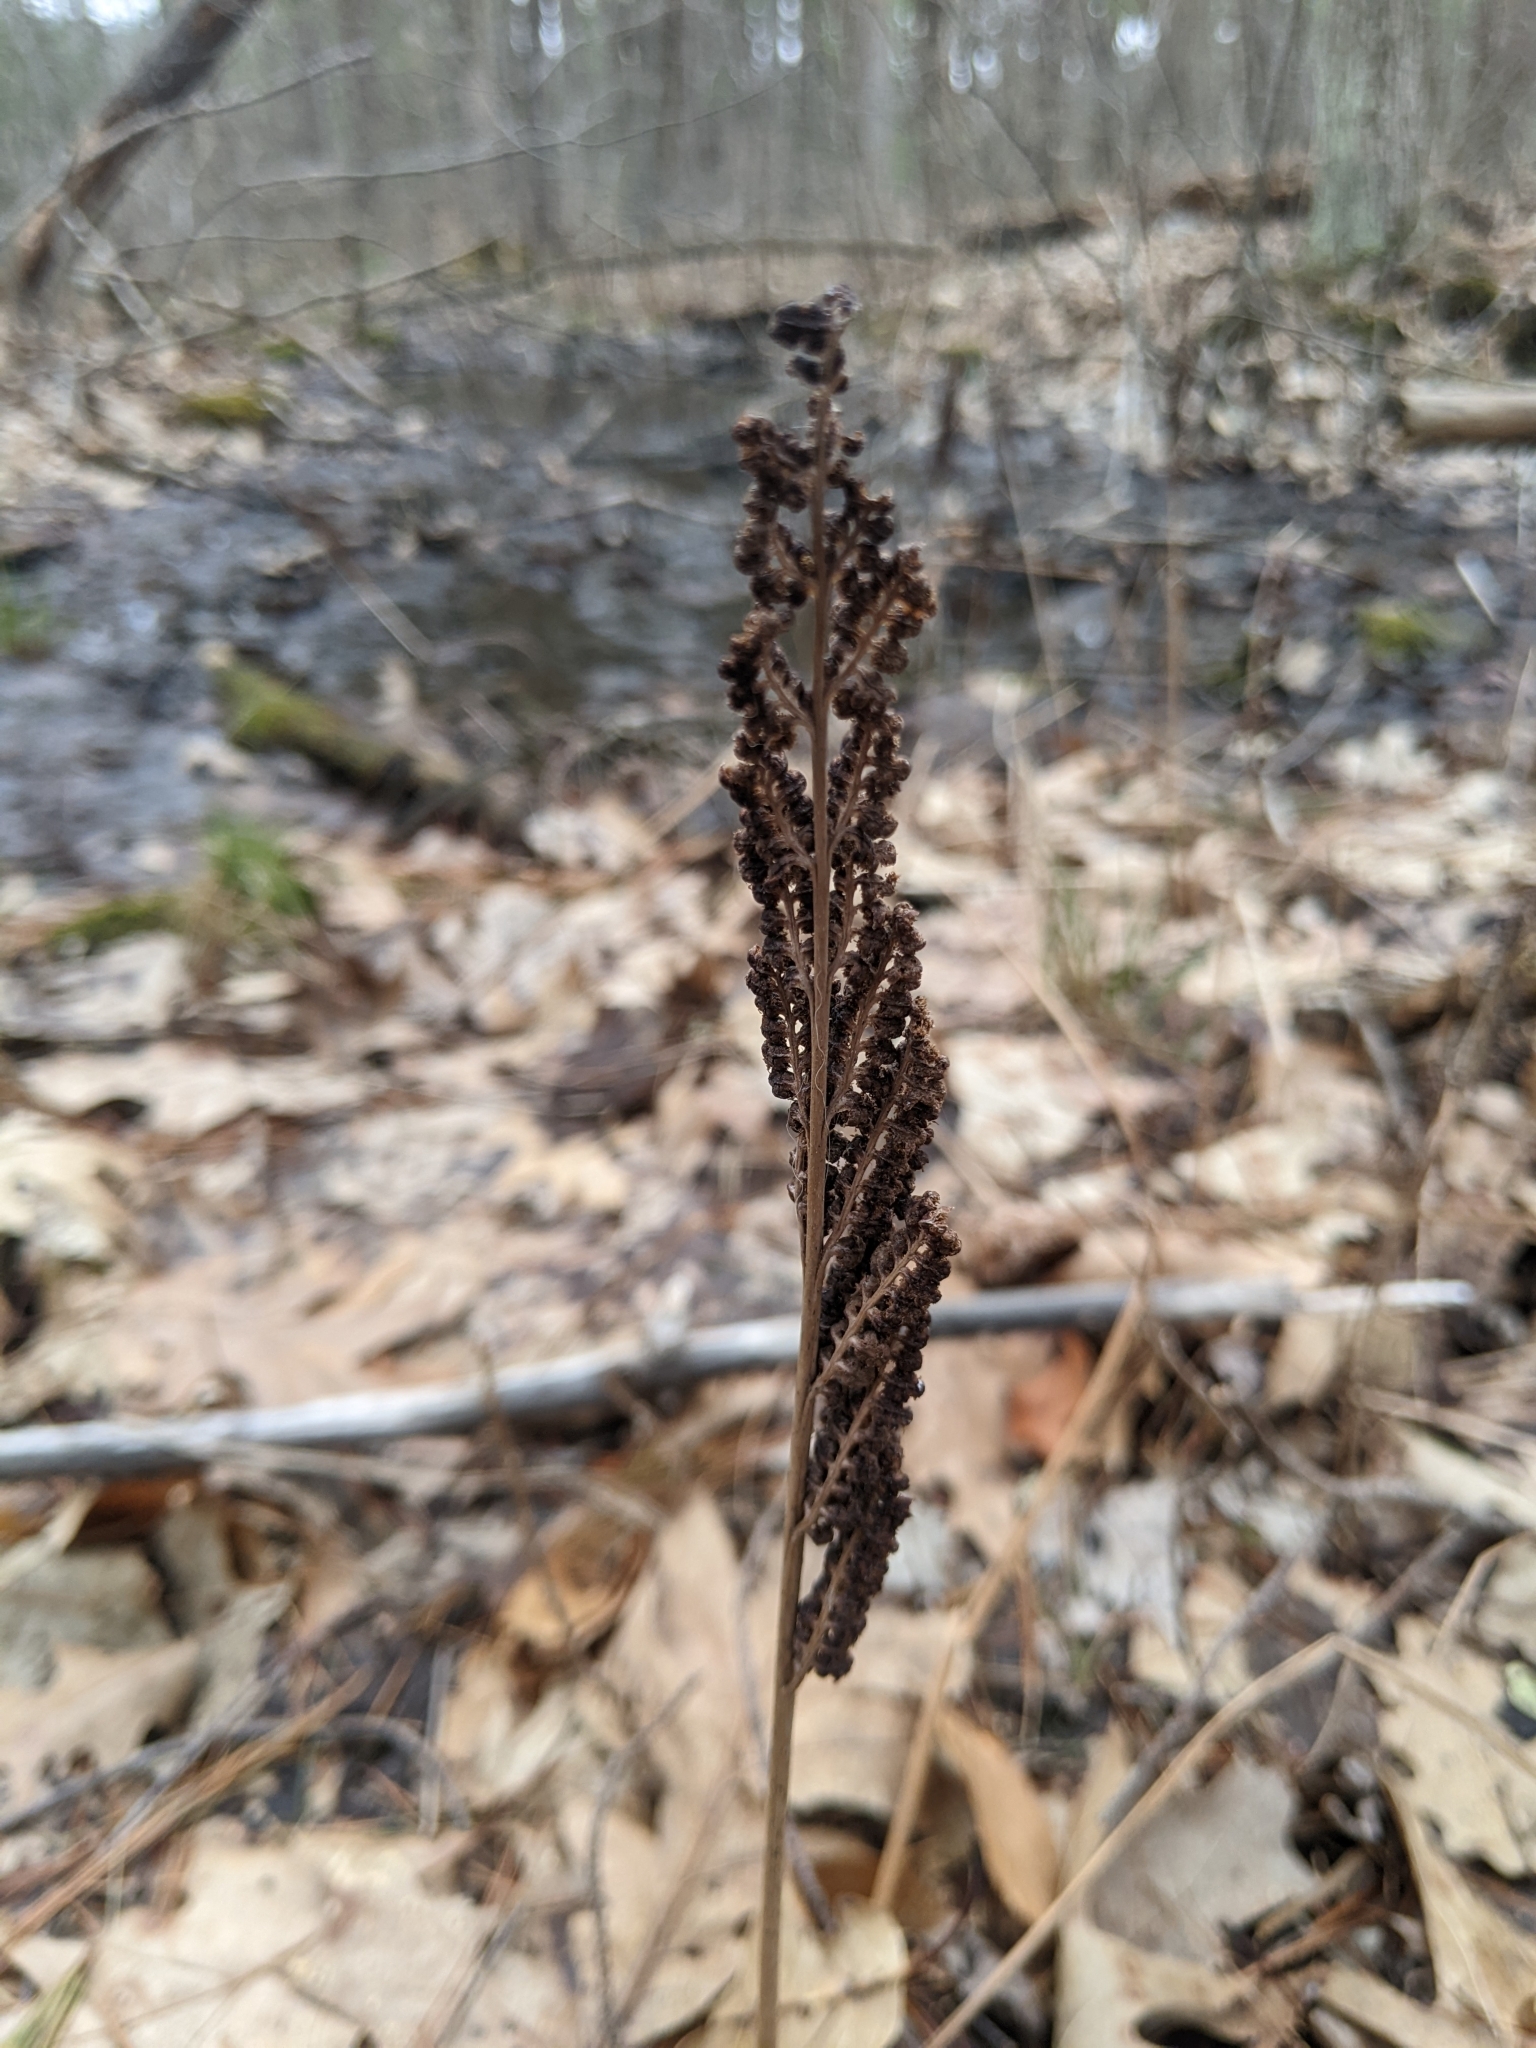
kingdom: Plantae
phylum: Tracheophyta
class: Polypodiopsida
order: Polypodiales
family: Onocleaceae
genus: Onoclea
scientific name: Onoclea sensibilis
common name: Sensitive fern
